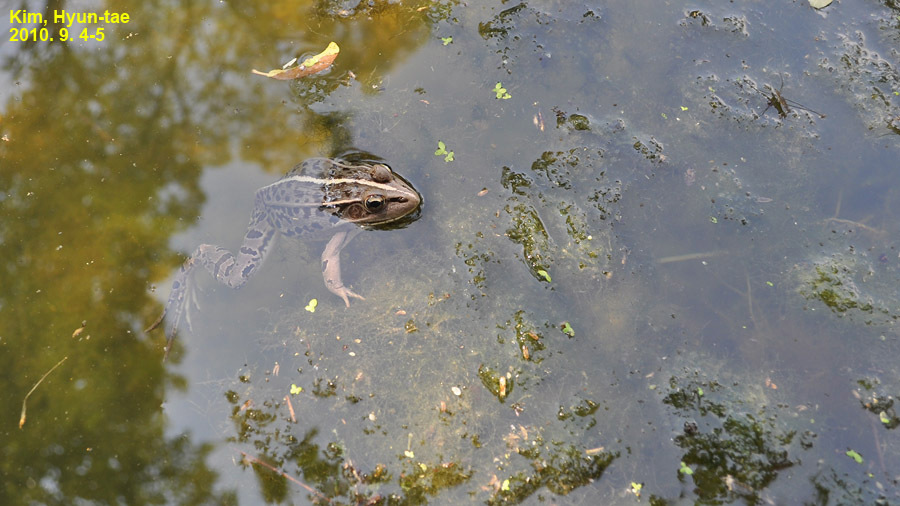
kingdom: Animalia
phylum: Chordata
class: Amphibia
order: Anura
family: Ranidae
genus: Pelophylax
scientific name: Pelophylax nigromaculatus
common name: Black-spotted pond frog
